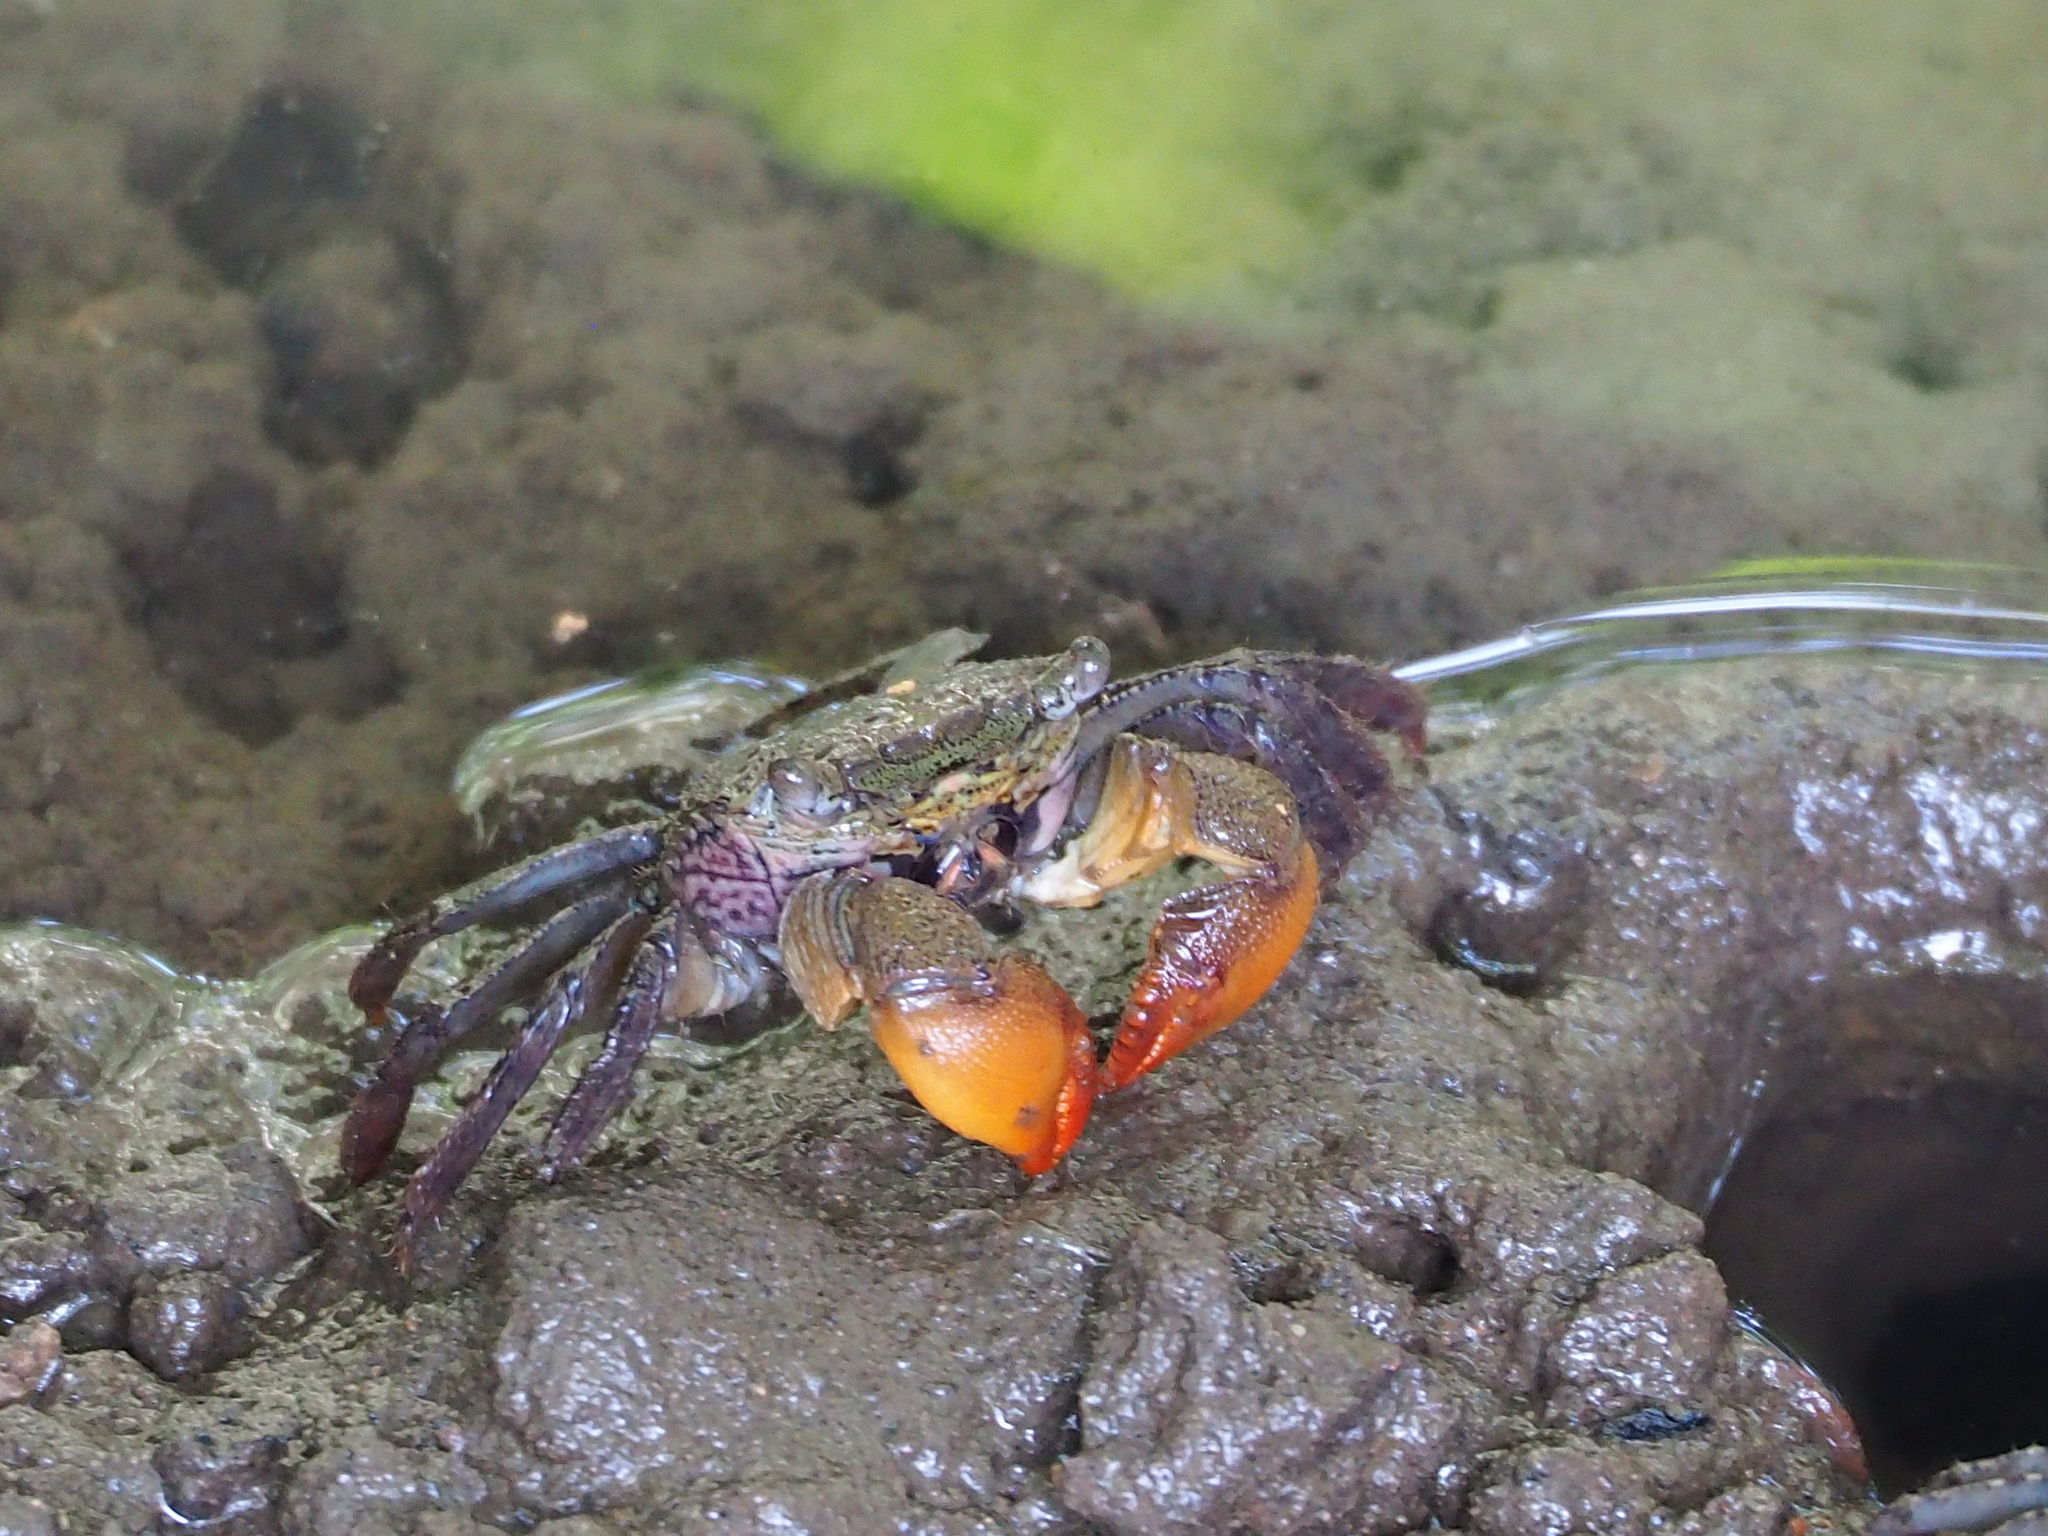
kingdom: Animalia
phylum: Arthropoda
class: Malacostraca
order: Decapoda
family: Sesarmidae
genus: Parasesarma
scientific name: Parasesarma insulare
